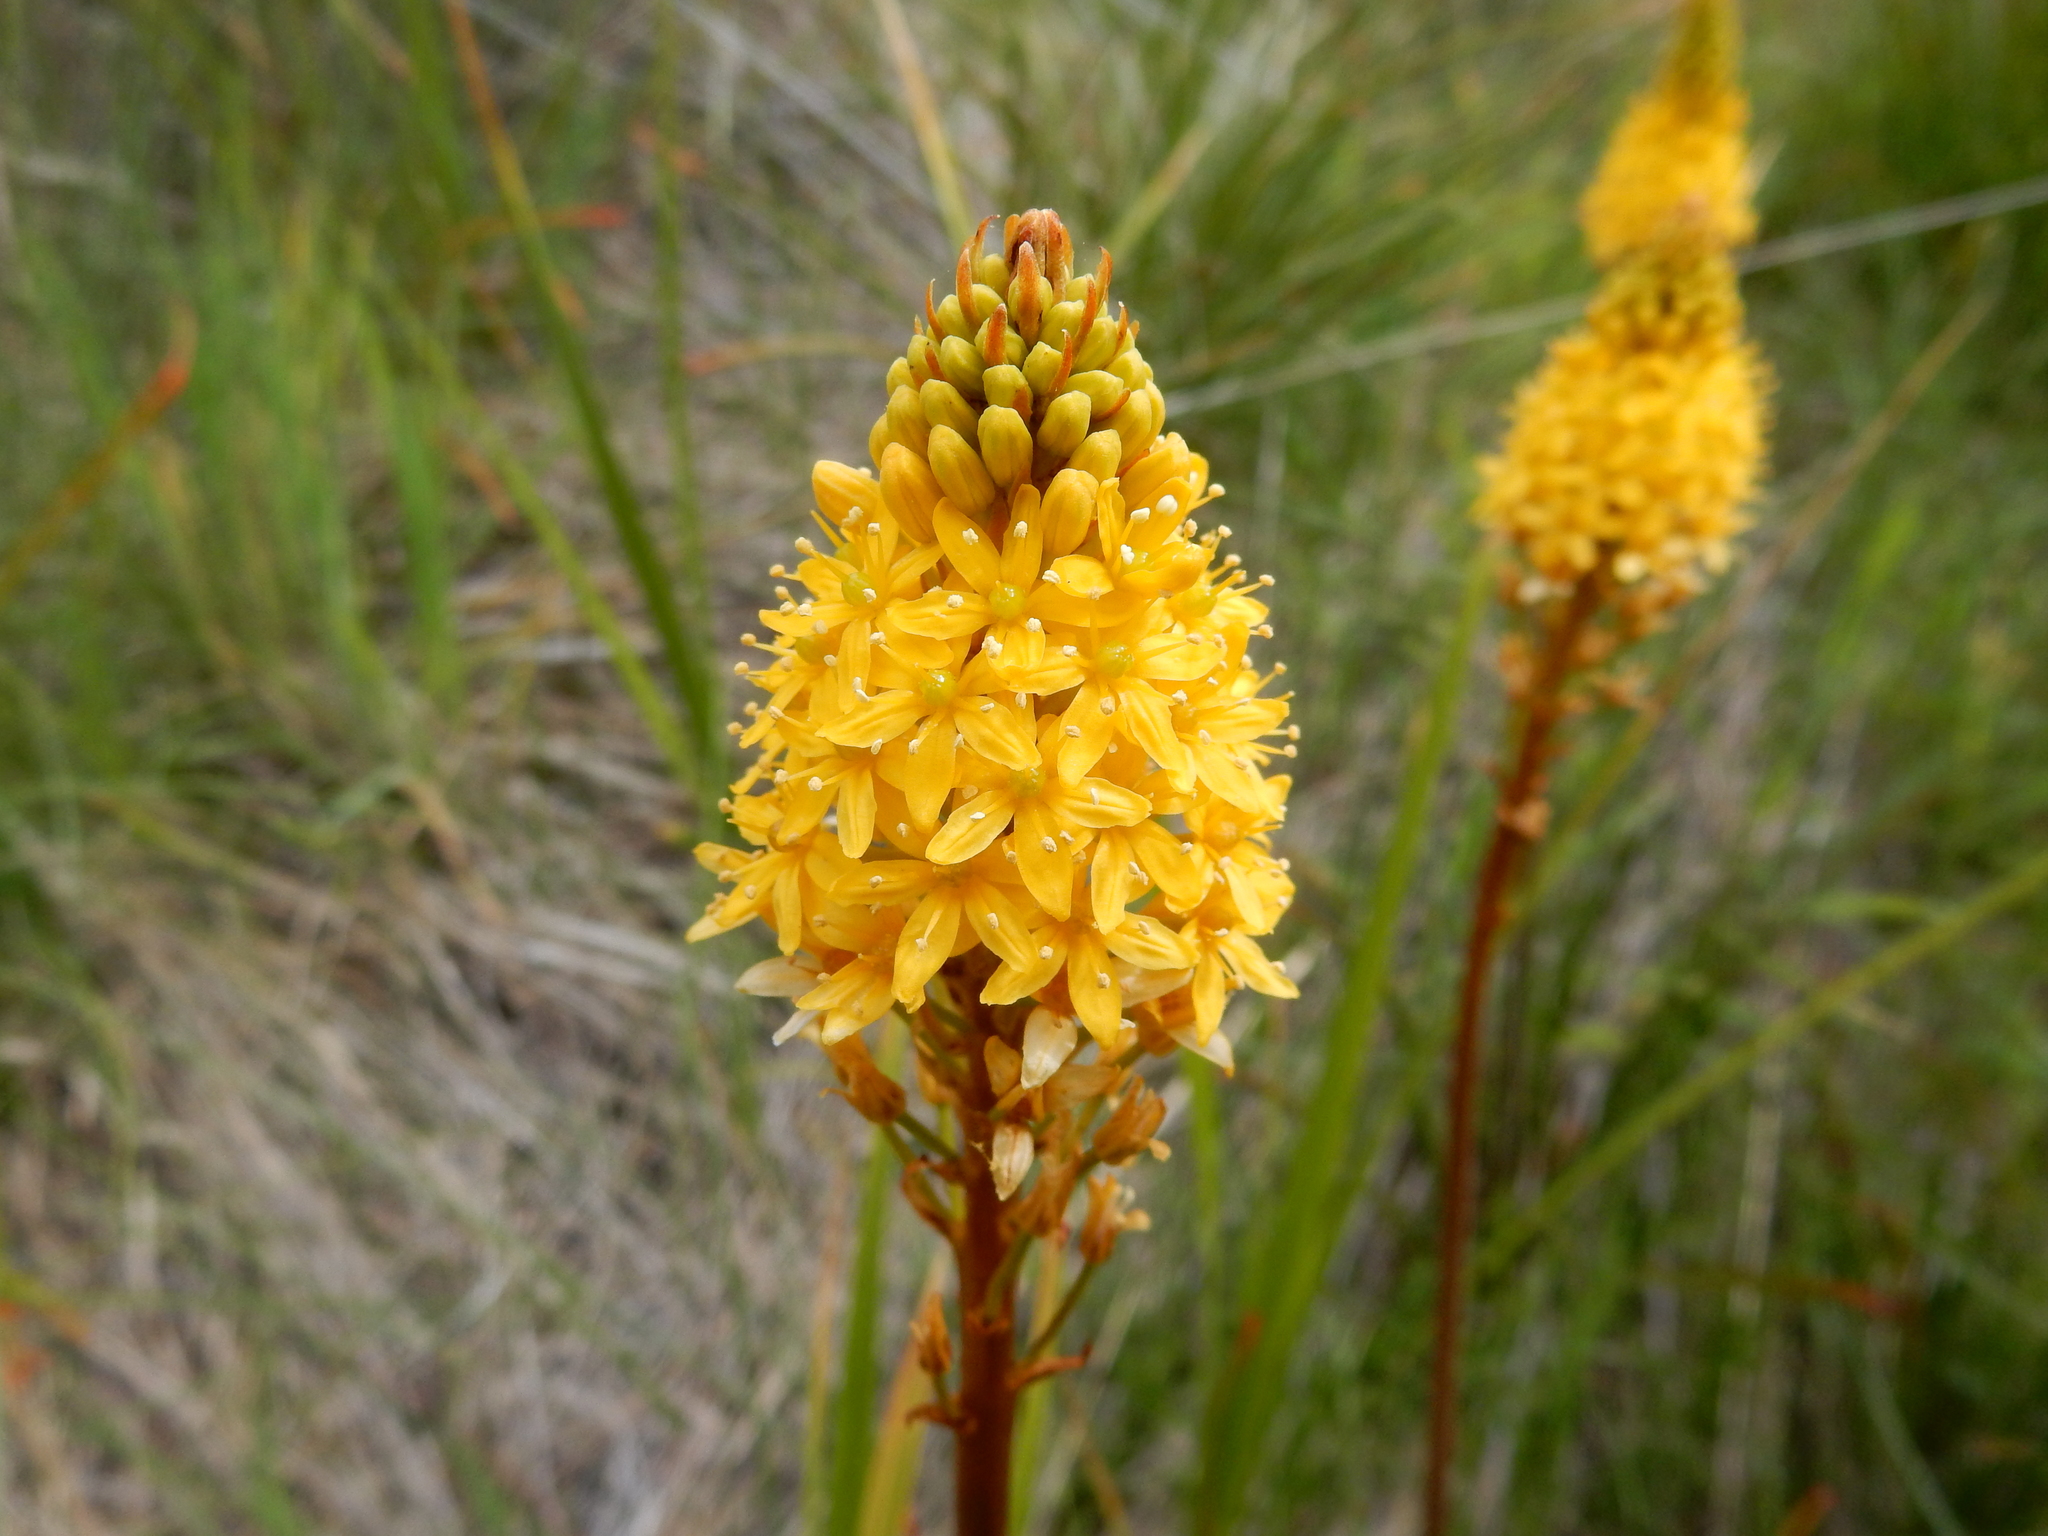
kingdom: Plantae
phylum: Tracheophyta
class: Liliopsida
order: Asparagales
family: Asphodelaceae
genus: Bulbinella
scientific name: Bulbinella angustifolia
